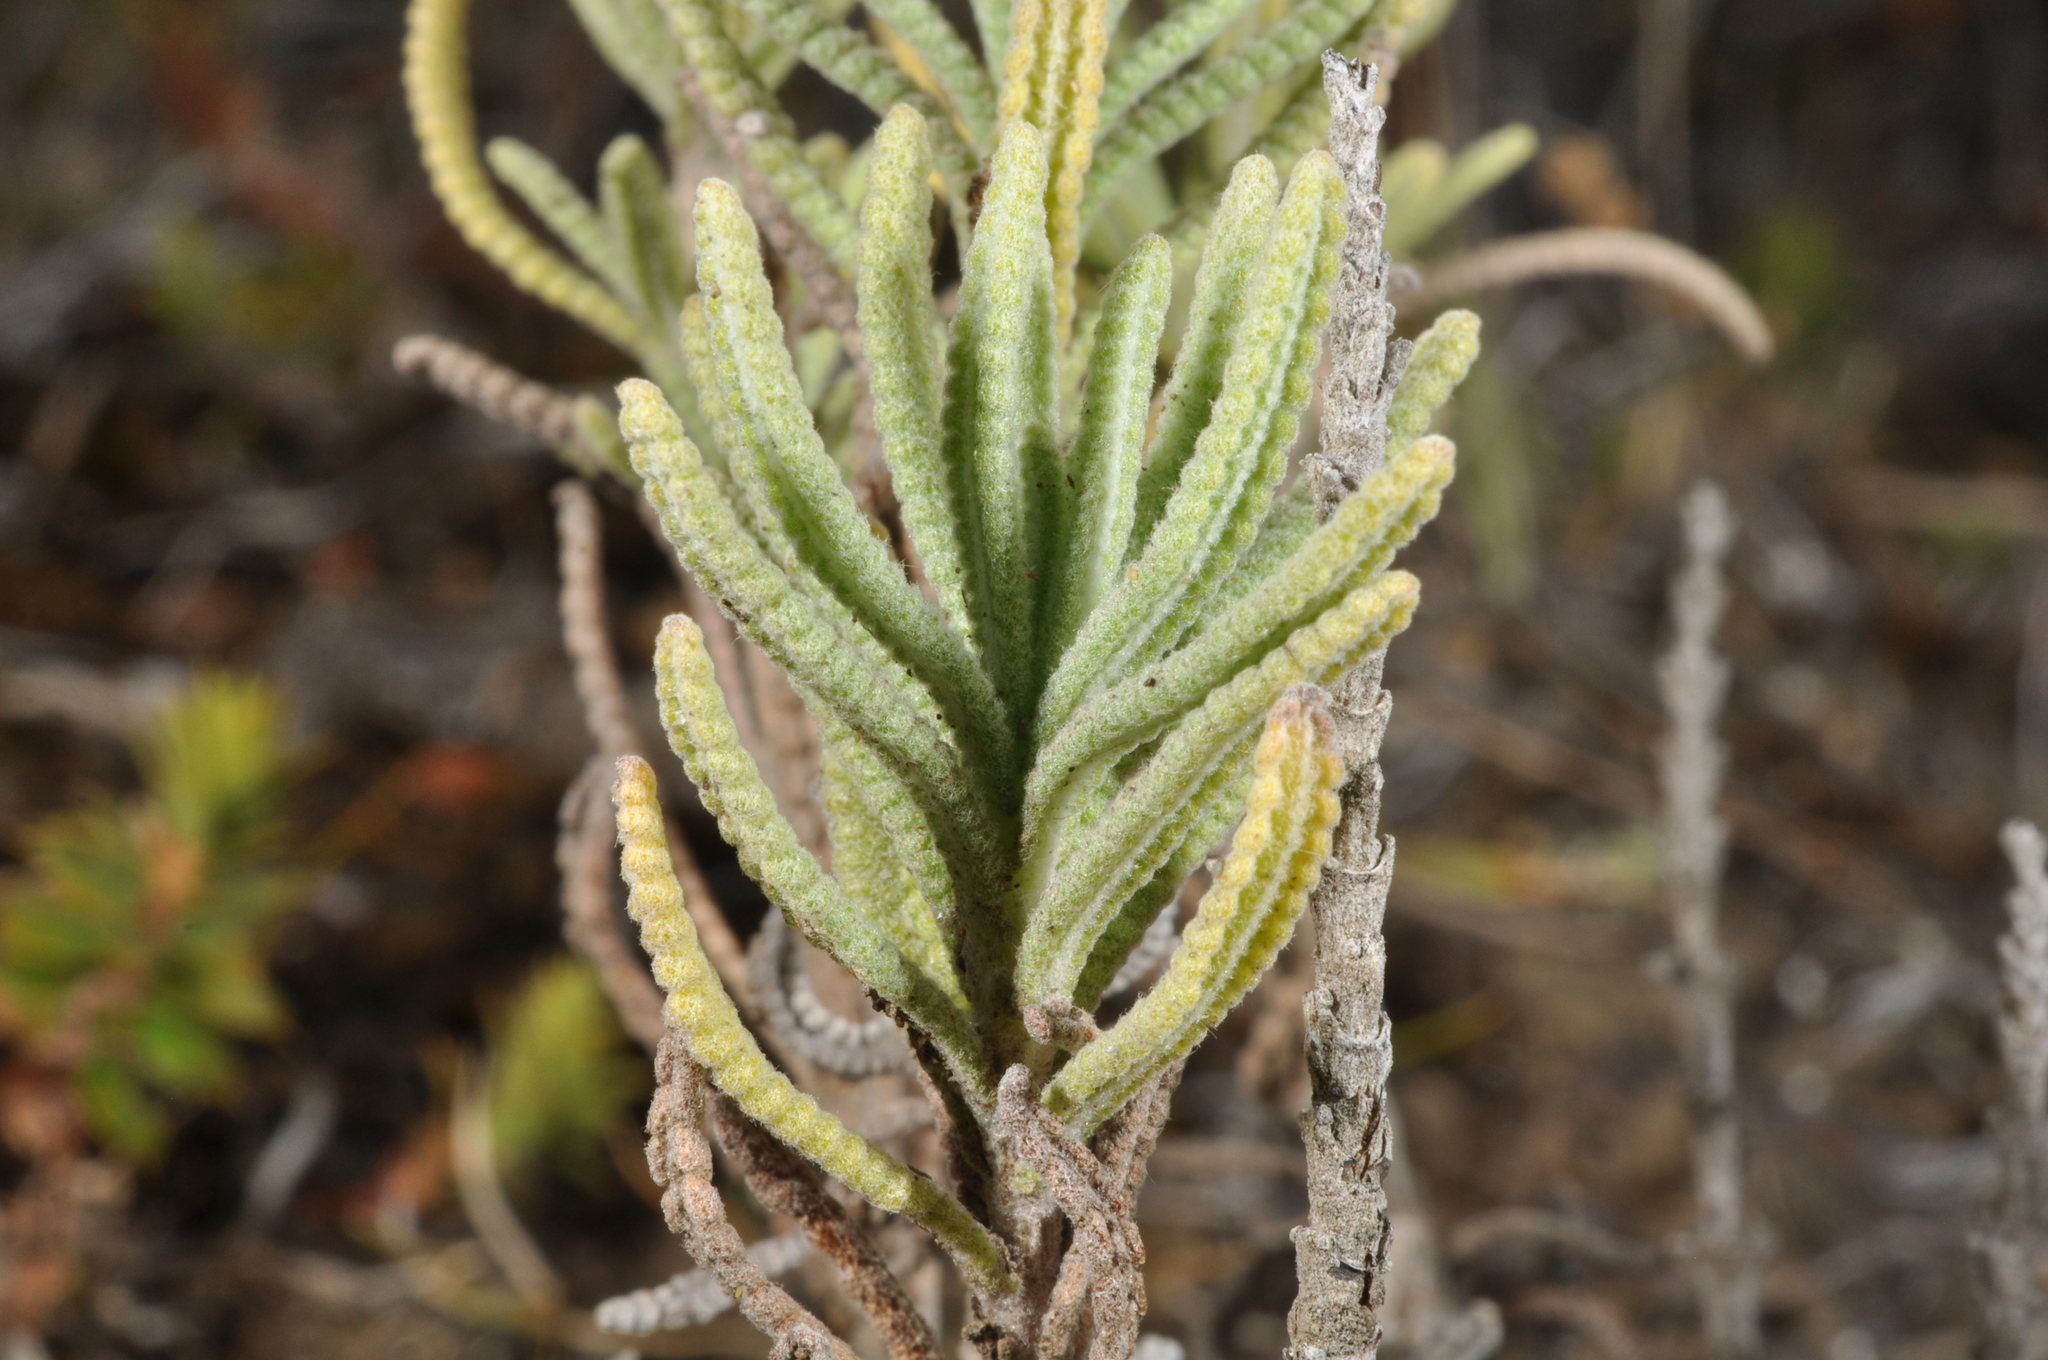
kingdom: Plantae
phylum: Tracheophyta
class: Magnoliopsida
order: Lamiales
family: Lamiaceae
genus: Lavandula
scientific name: Lavandula dentata
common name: French lavender
